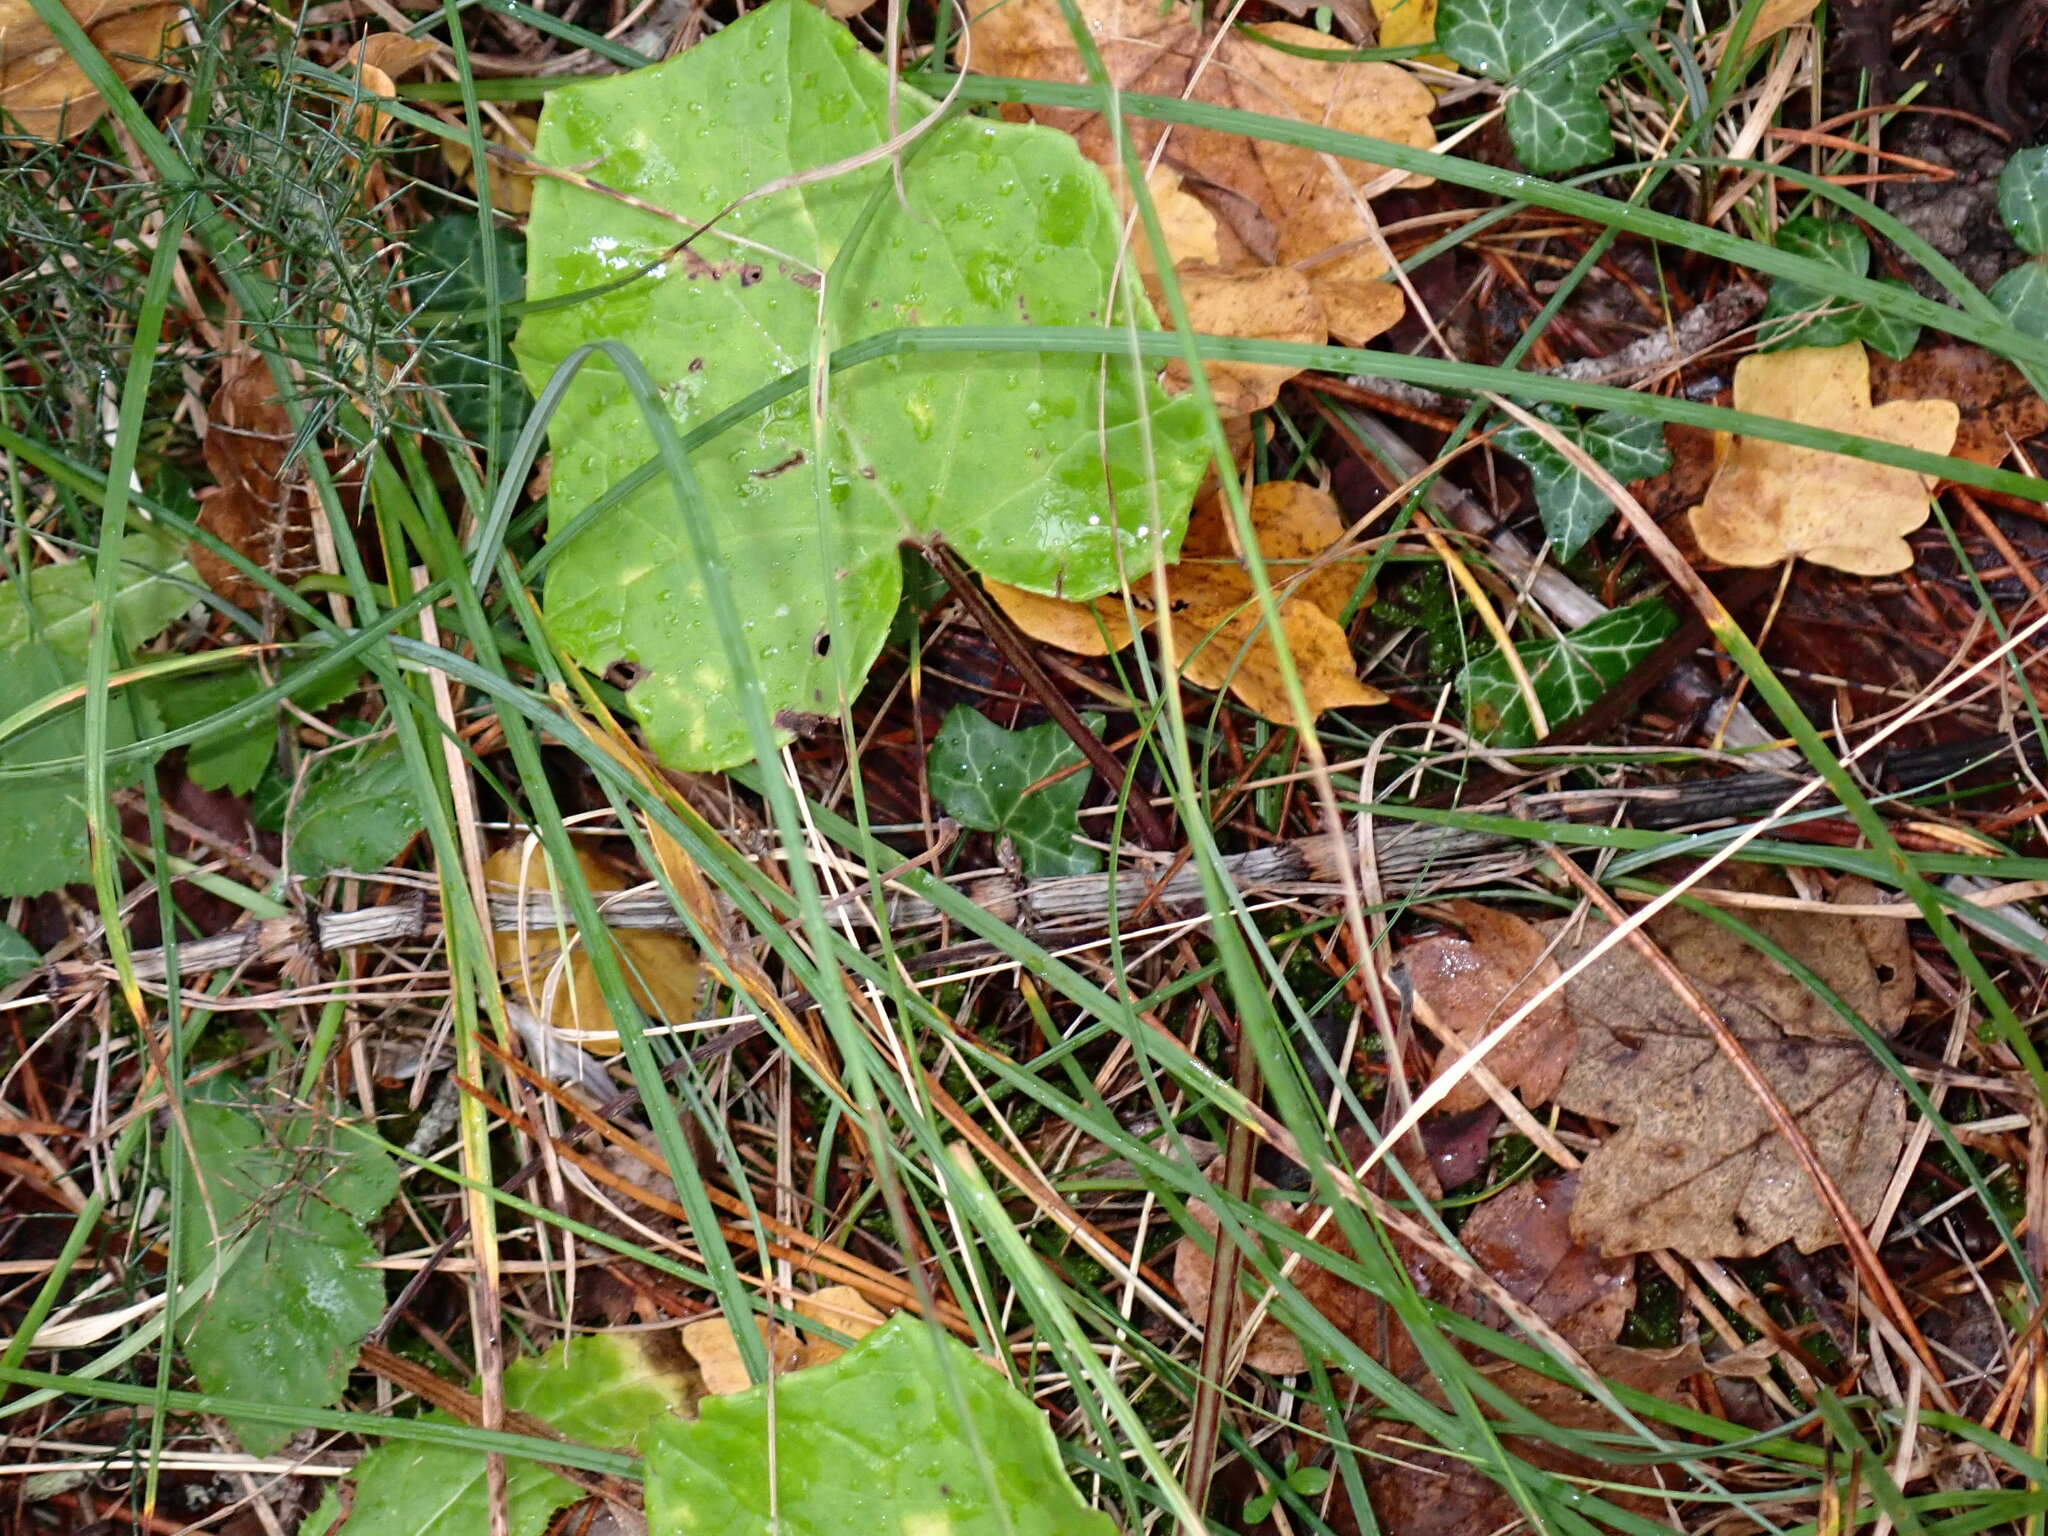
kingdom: Plantae
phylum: Tracheophyta
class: Magnoliopsida
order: Asterales
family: Asteraceae
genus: Tussilago
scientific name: Tussilago farfara
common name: Coltsfoot
